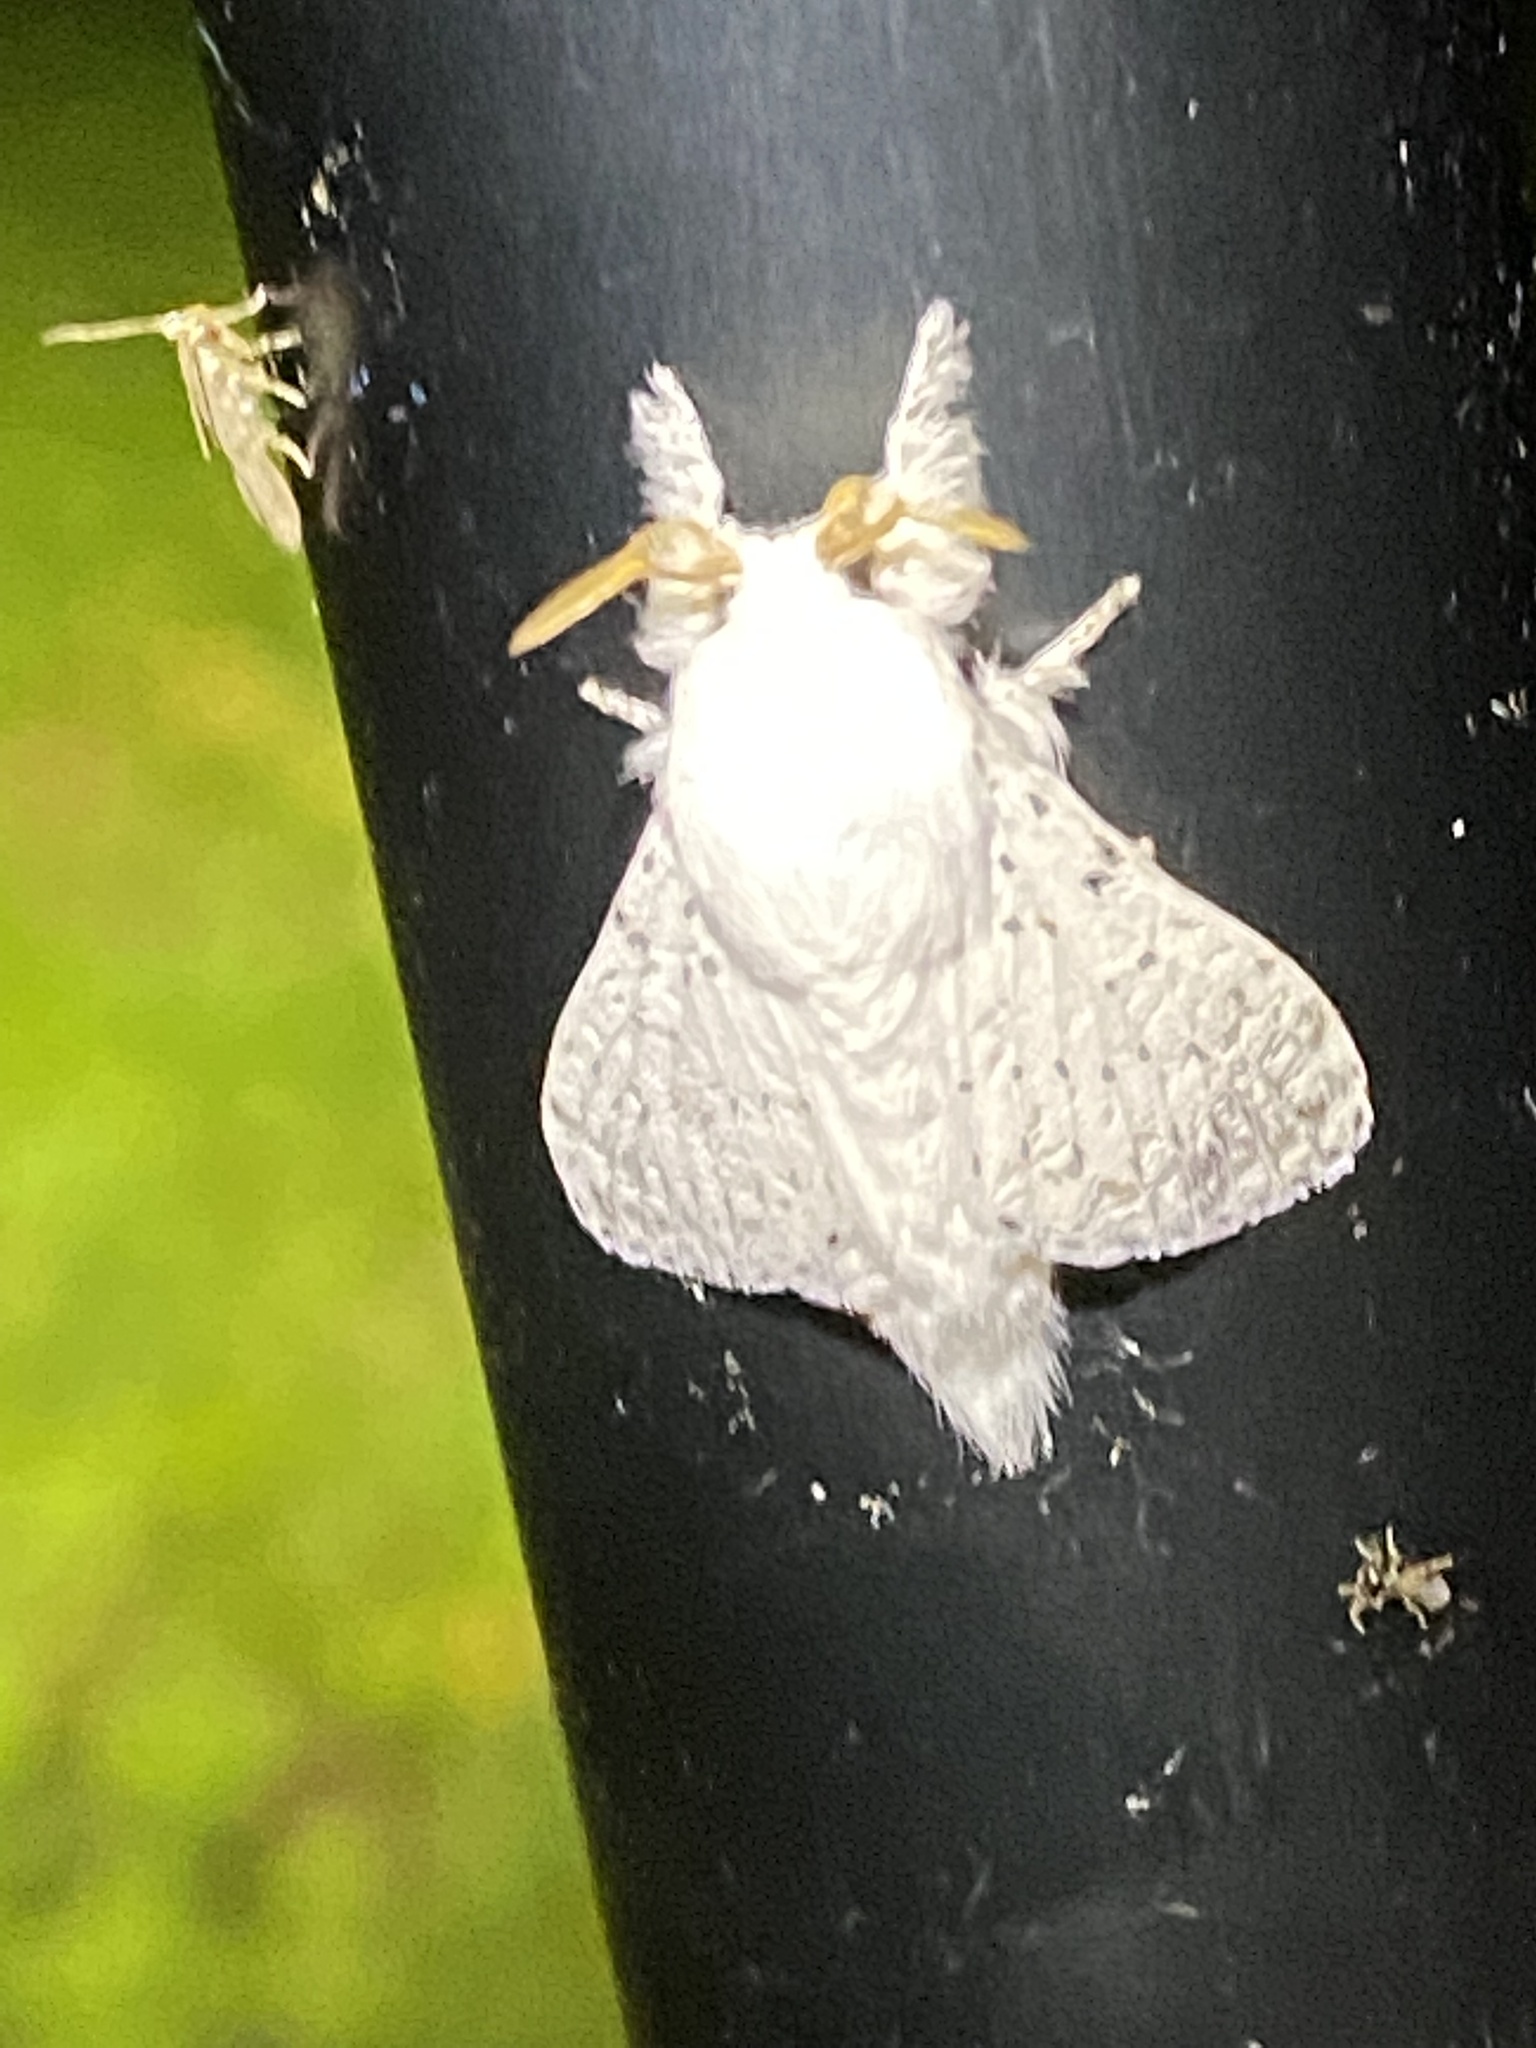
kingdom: Animalia
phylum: Arthropoda
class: Insecta
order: Lepidoptera
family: Lasiocampidae
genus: Artace
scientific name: Artace cribrarius
